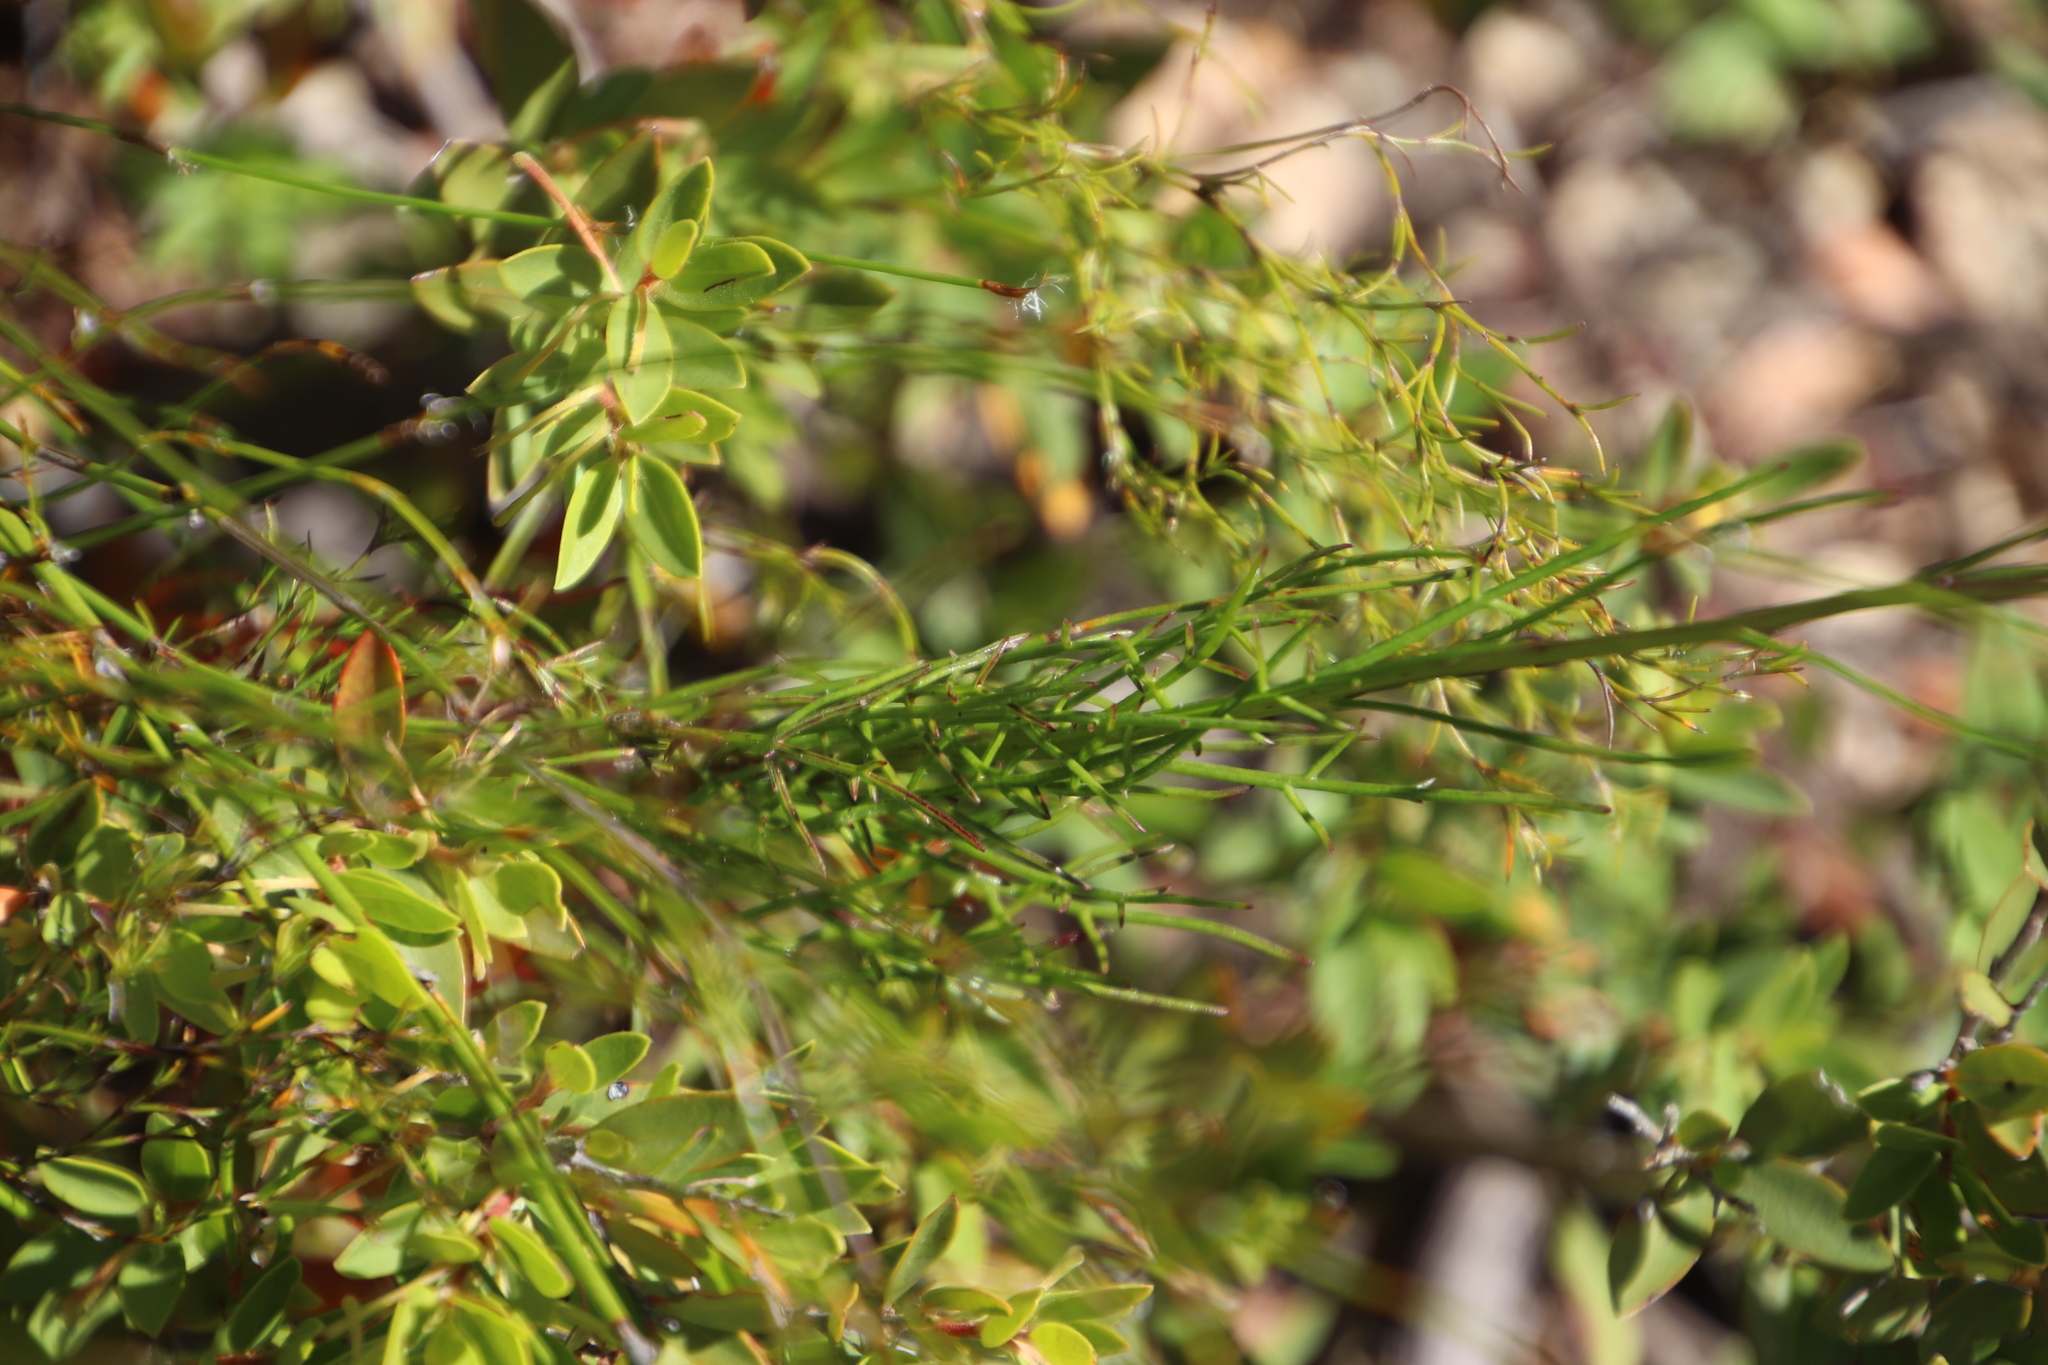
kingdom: Plantae
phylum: Tracheophyta
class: Magnoliopsida
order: Asterales
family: Asteraceae
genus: Senecio
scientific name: Senecio paniculatus
